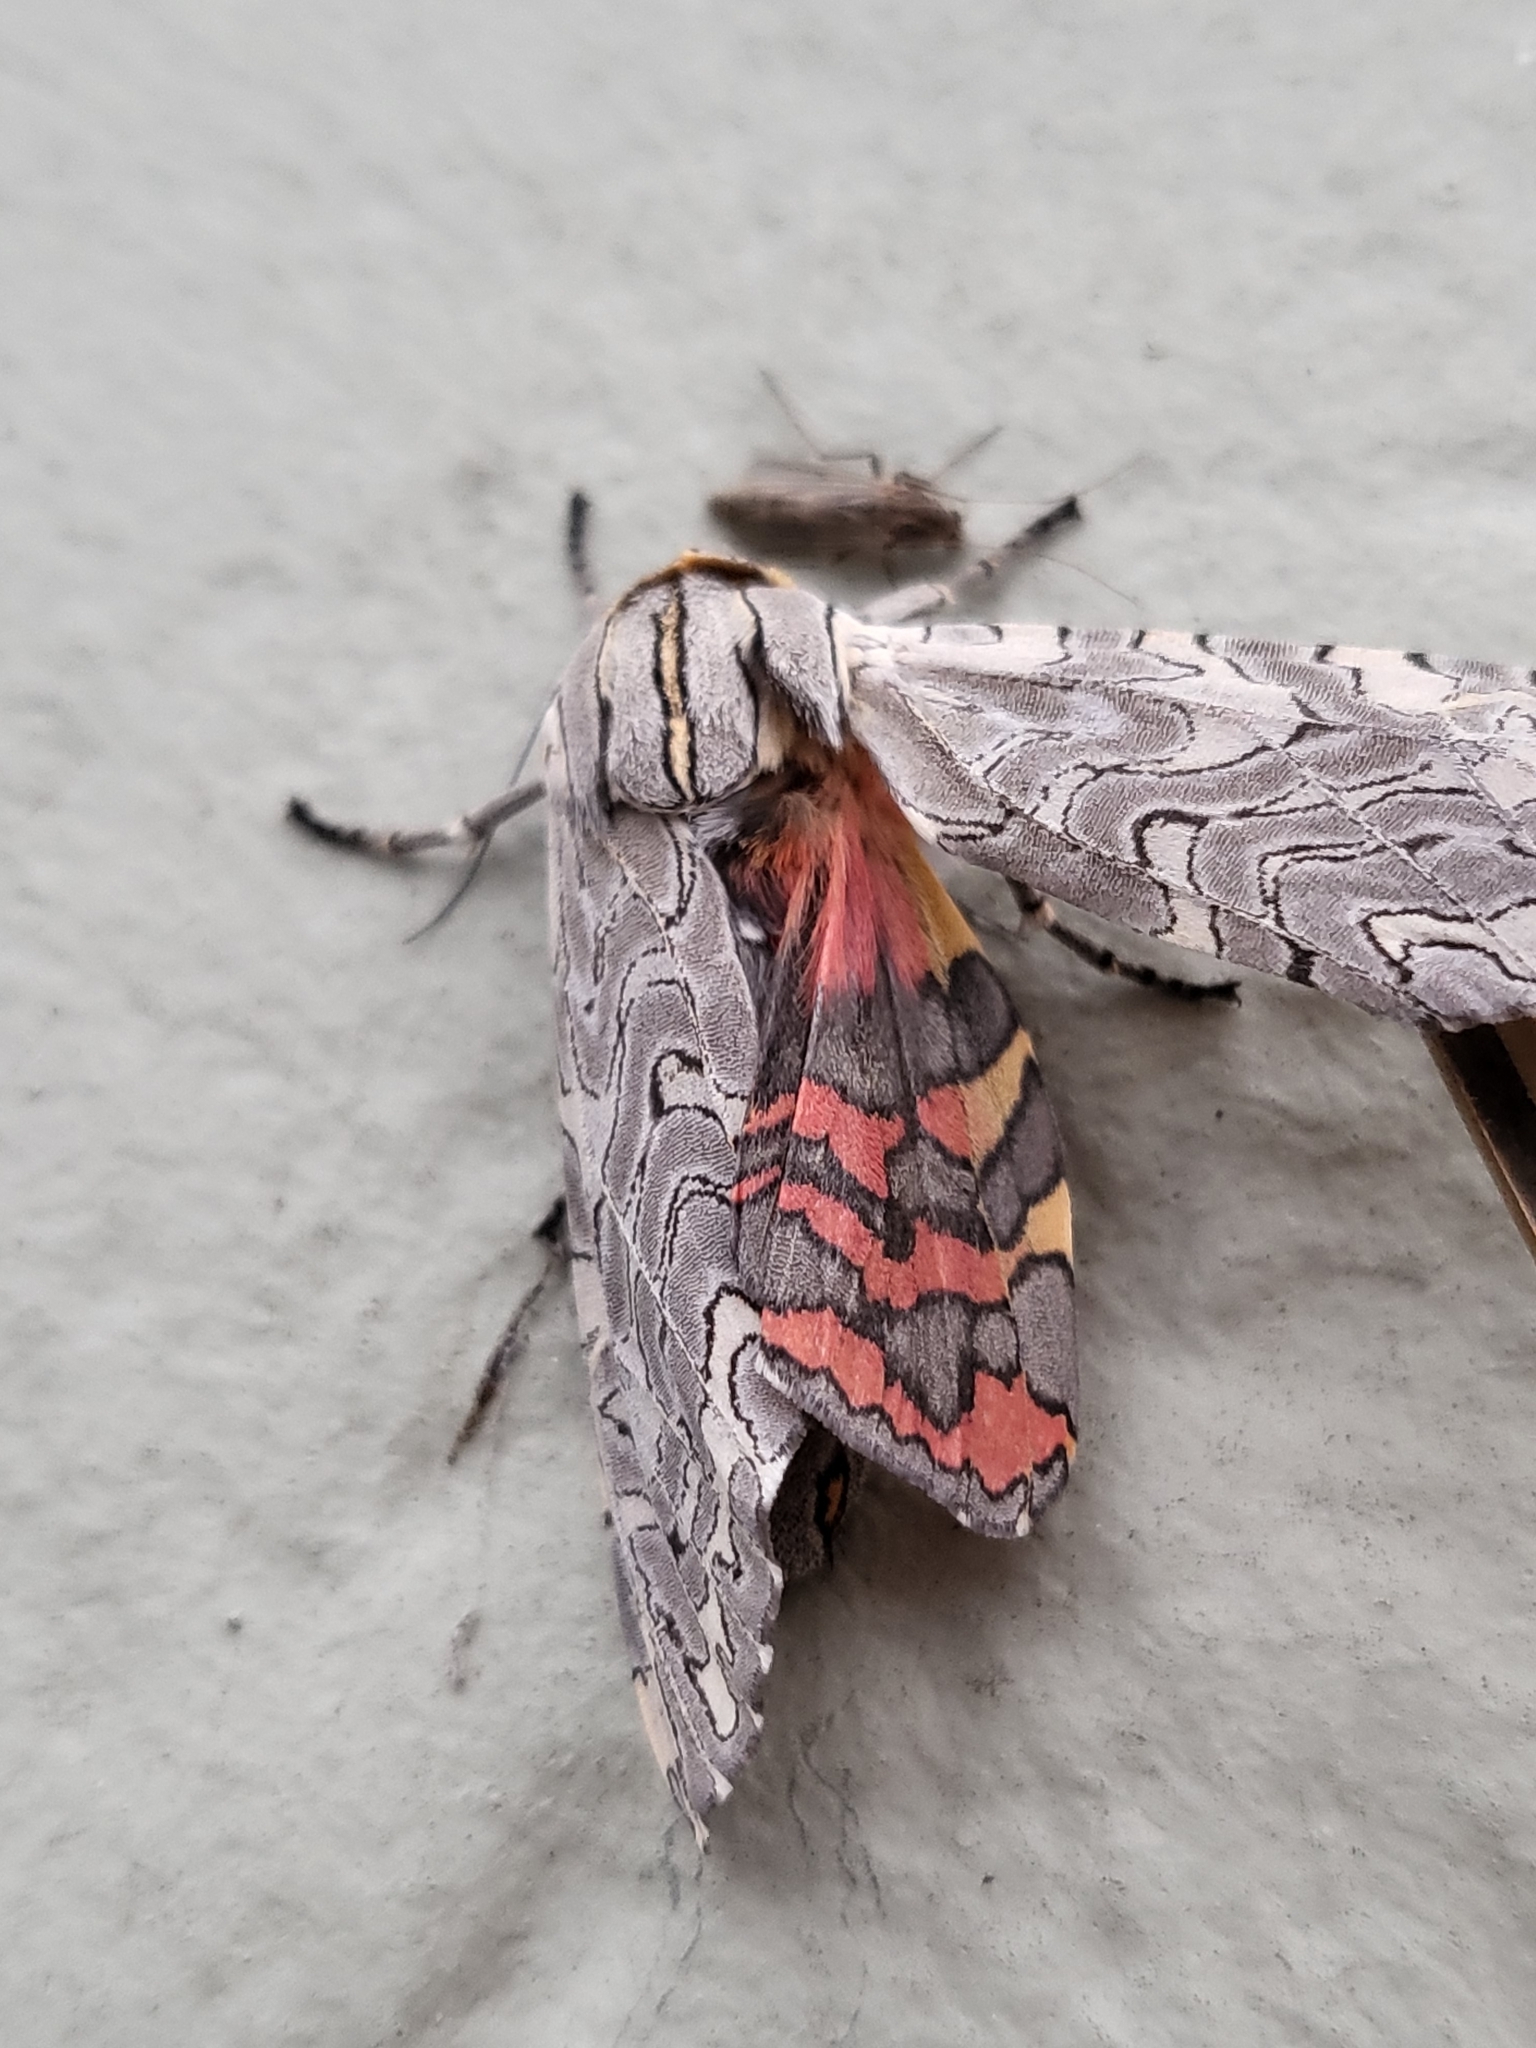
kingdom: Animalia
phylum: Arthropoda
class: Insecta
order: Lepidoptera
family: Erebidae
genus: Arachnis
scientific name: Arachnis picta
